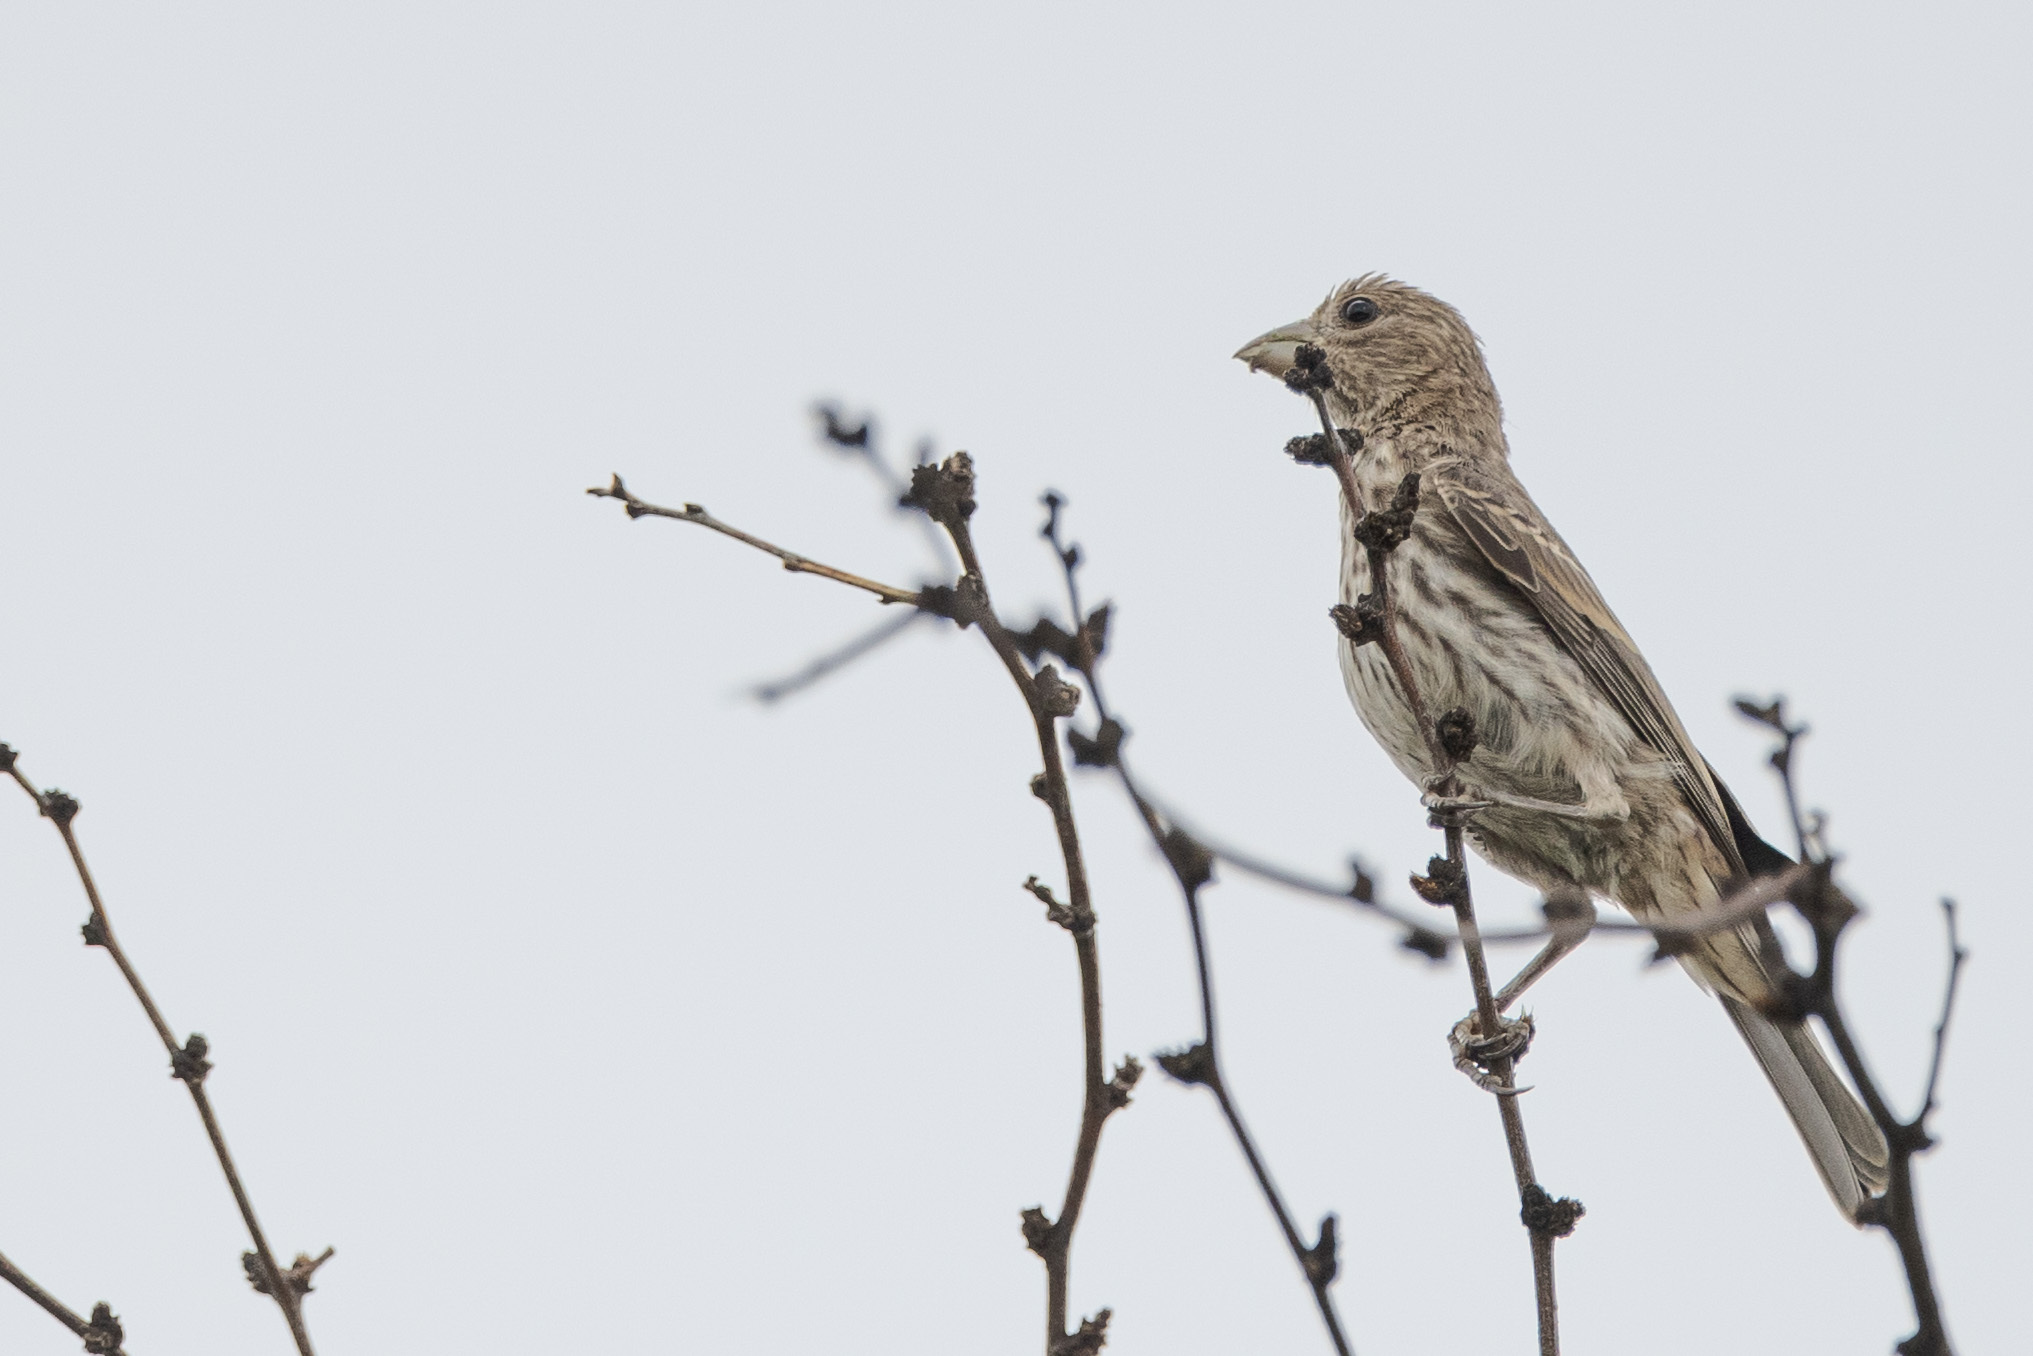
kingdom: Animalia
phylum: Chordata
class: Aves
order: Passeriformes
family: Fringillidae
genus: Haemorhous
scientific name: Haemorhous mexicanus
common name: House finch
